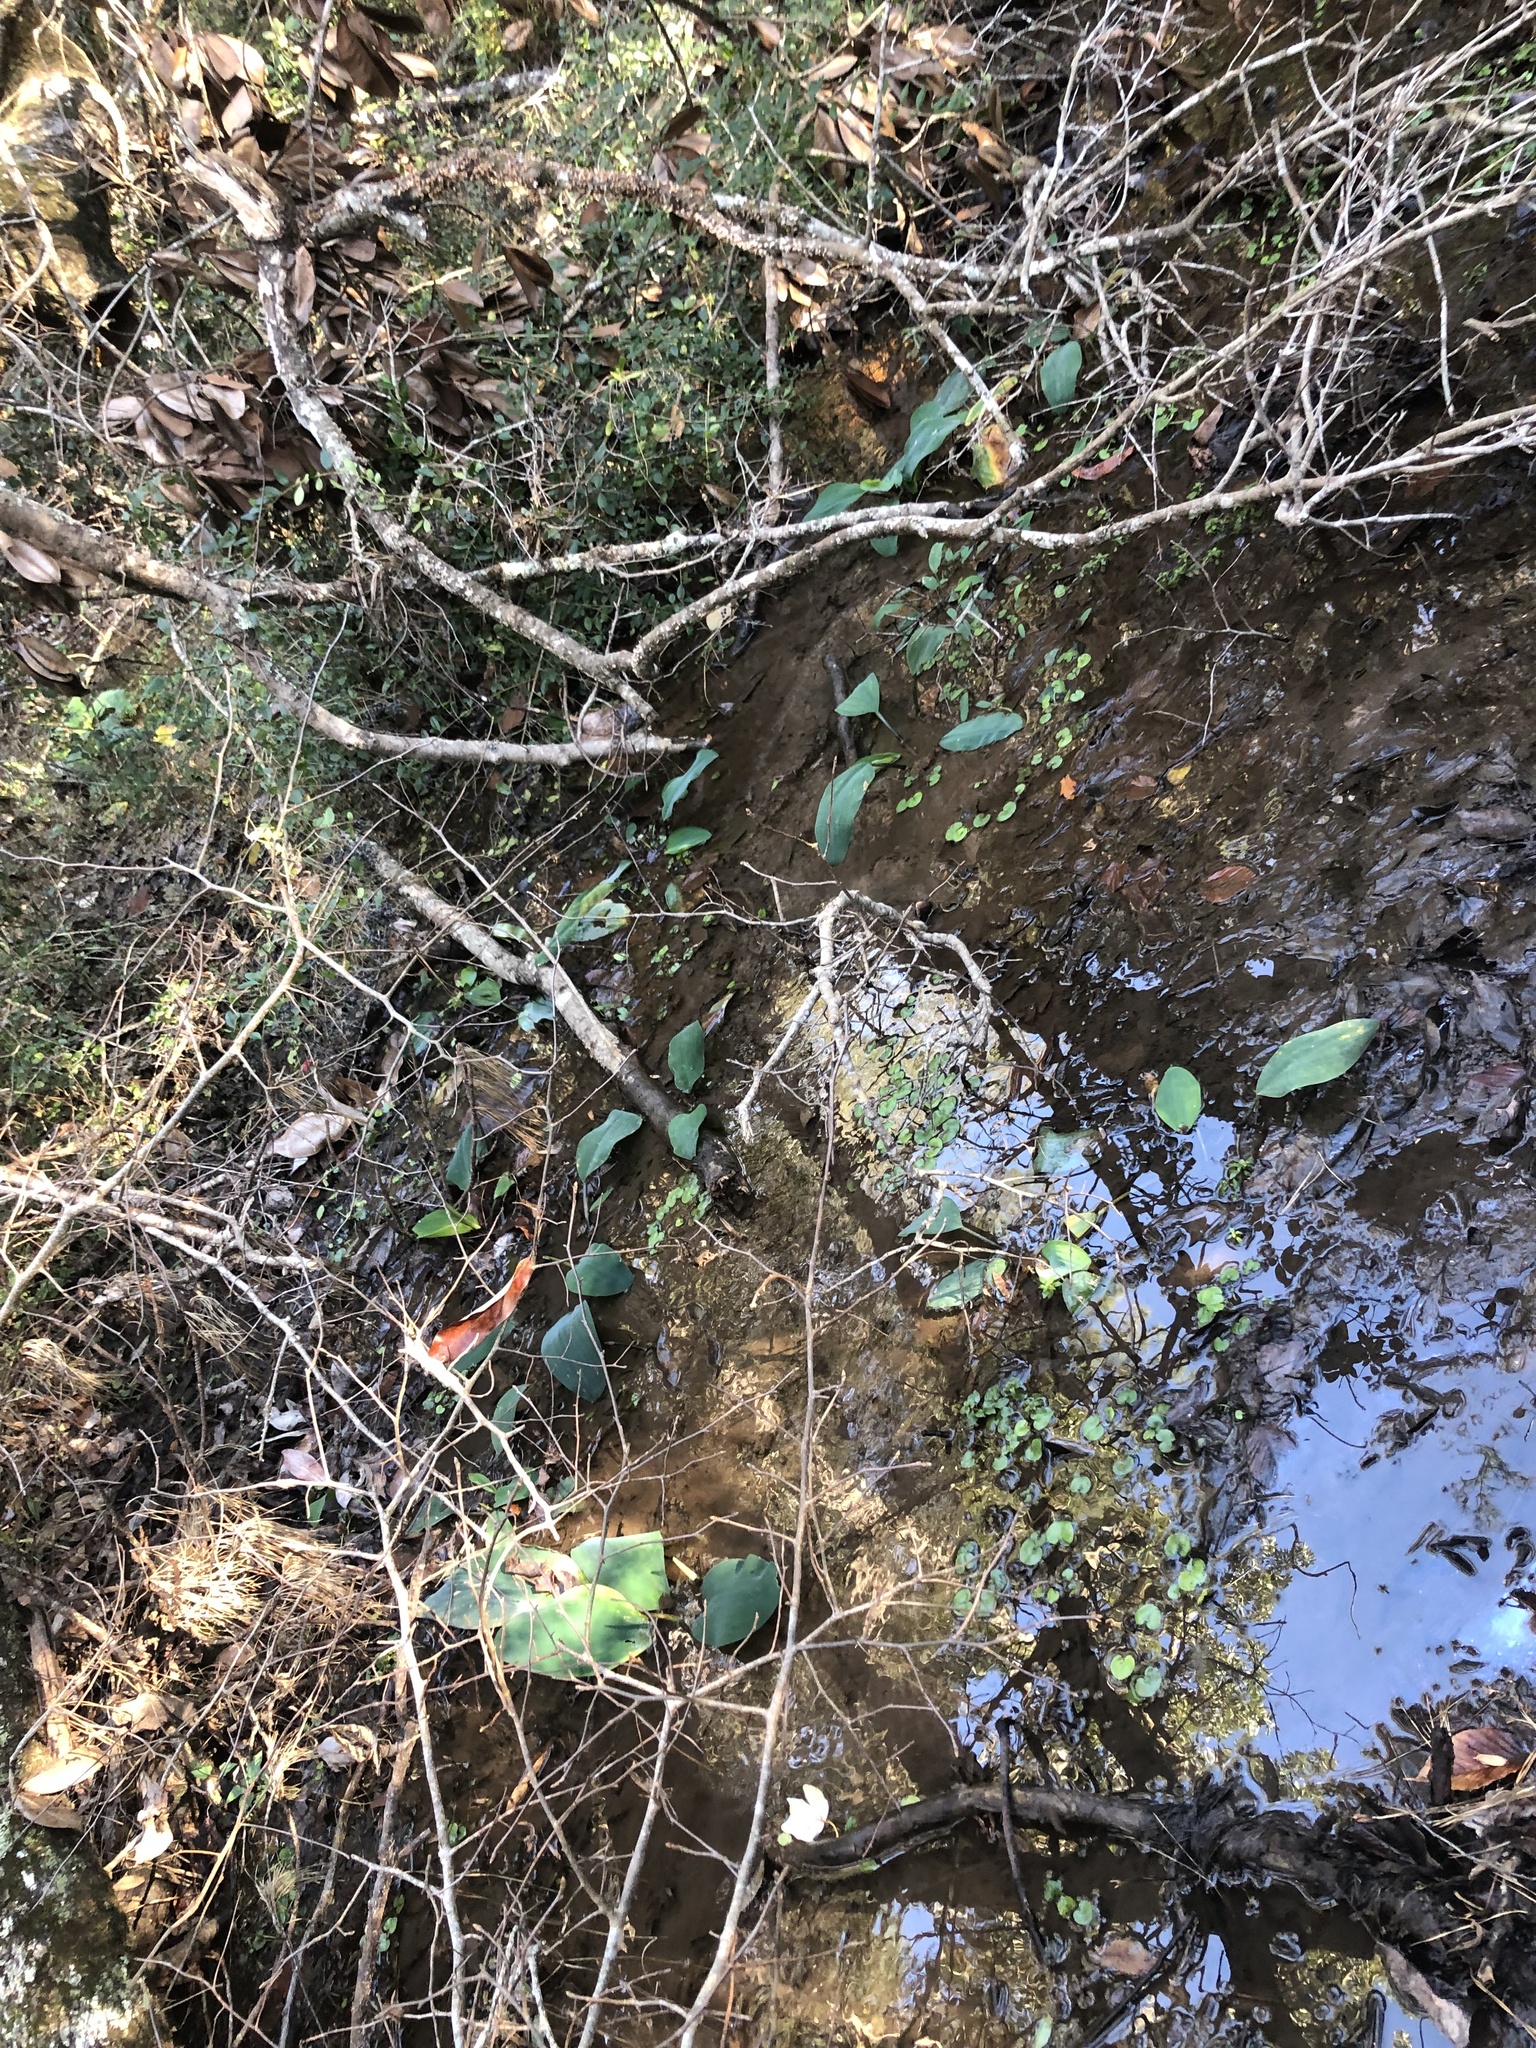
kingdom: Plantae
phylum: Tracheophyta
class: Liliopsida
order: Alismatales
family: Araceae
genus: Orontium
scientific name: Orontium aquaticum
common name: Golden-club
